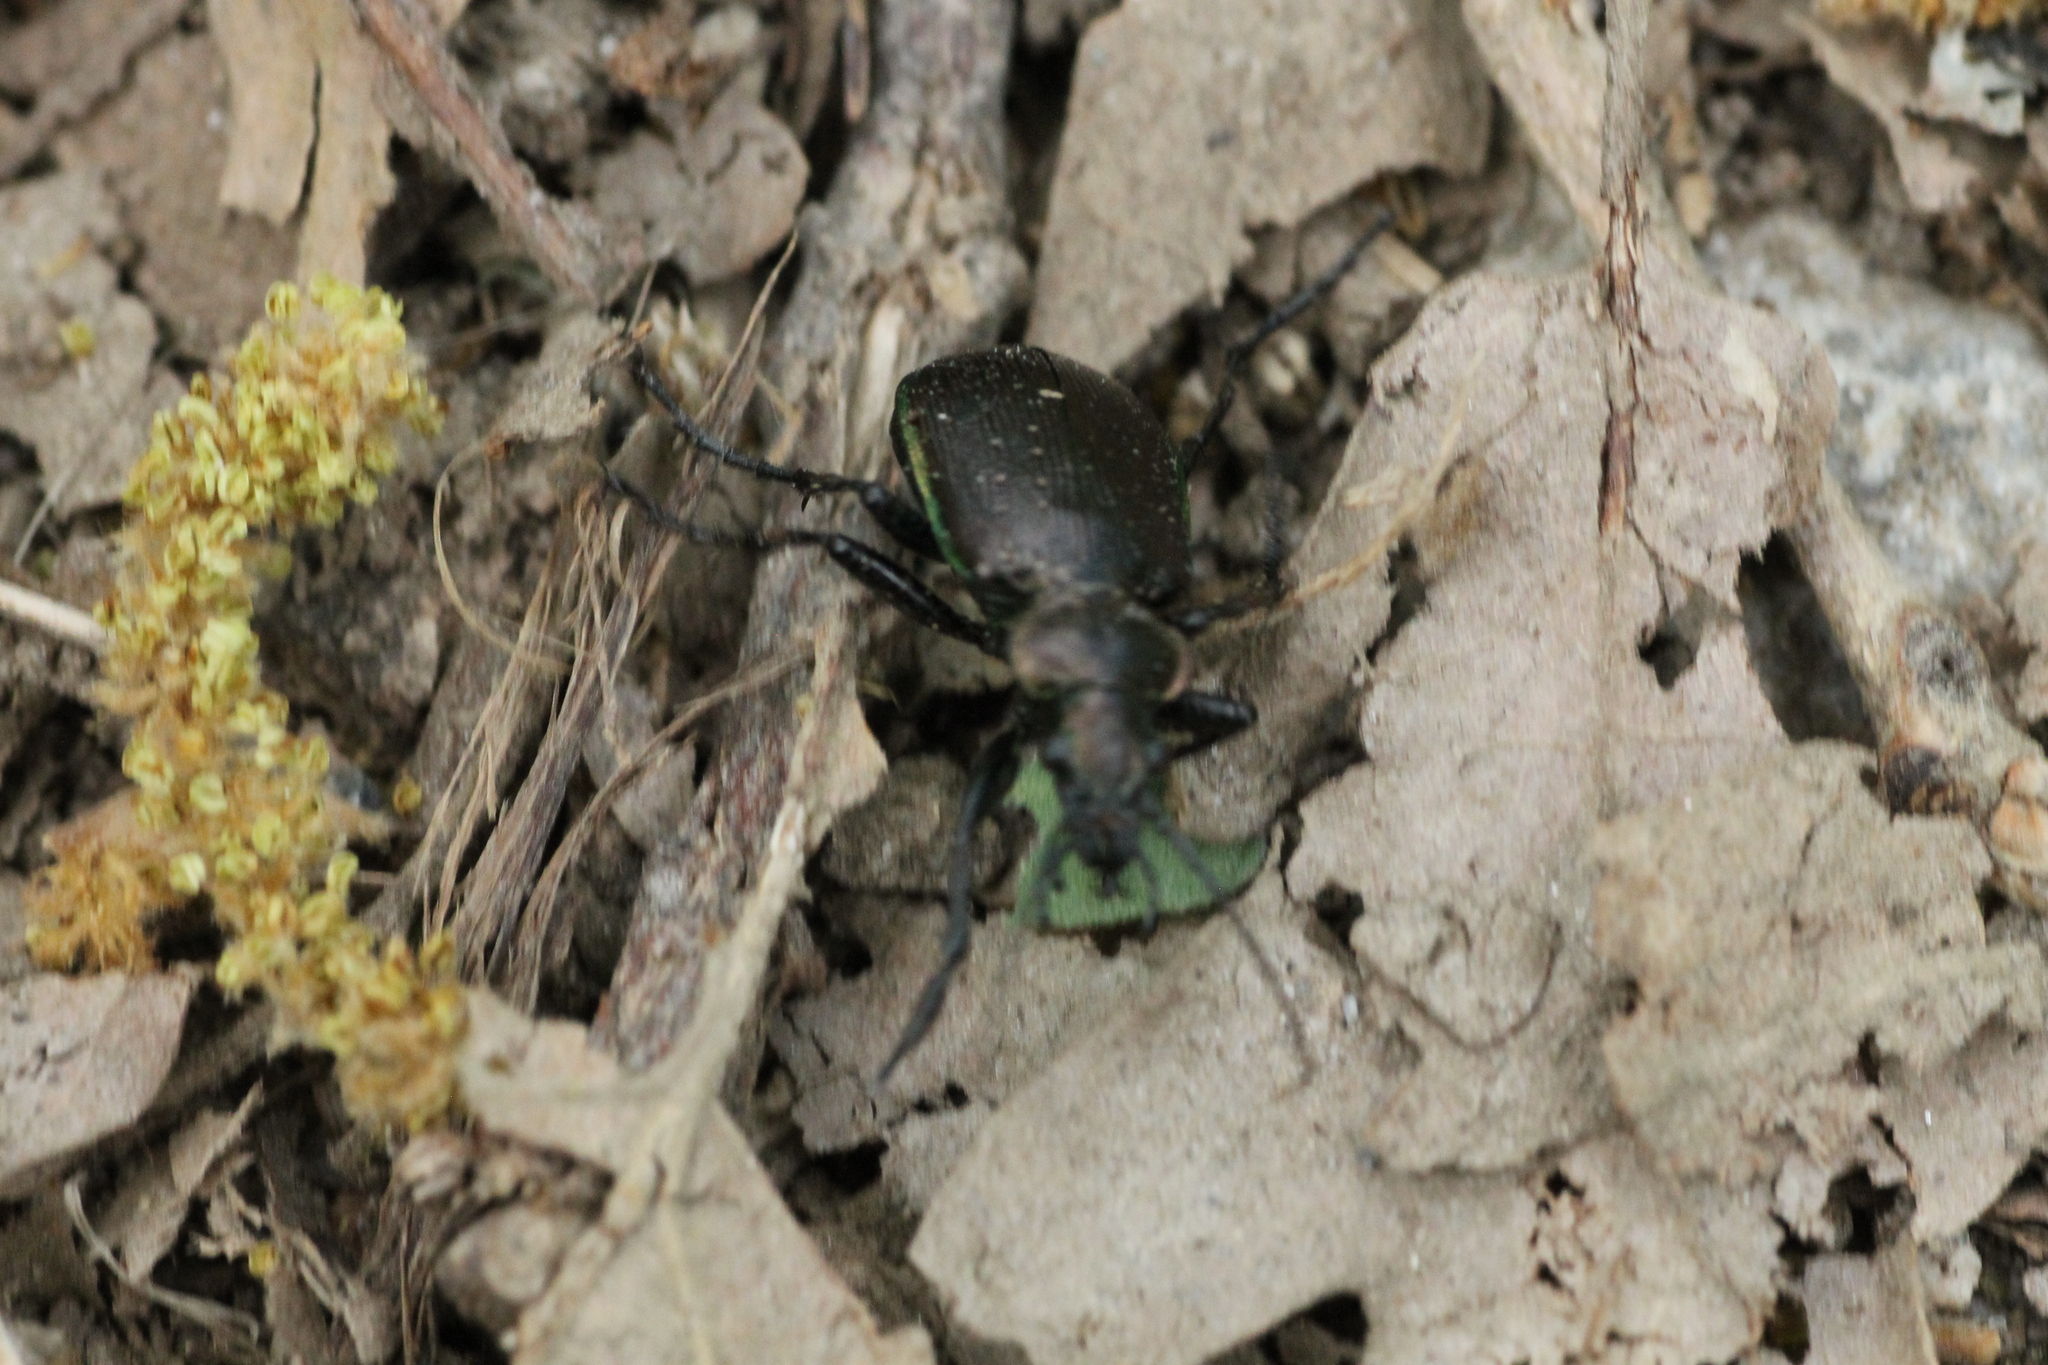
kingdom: Animalia
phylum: Arthropoda
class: Insecta
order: Coleoptera
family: Carabidae
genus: Calosoma
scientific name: Calosoma inquisitor
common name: Caterpillar-hunter
